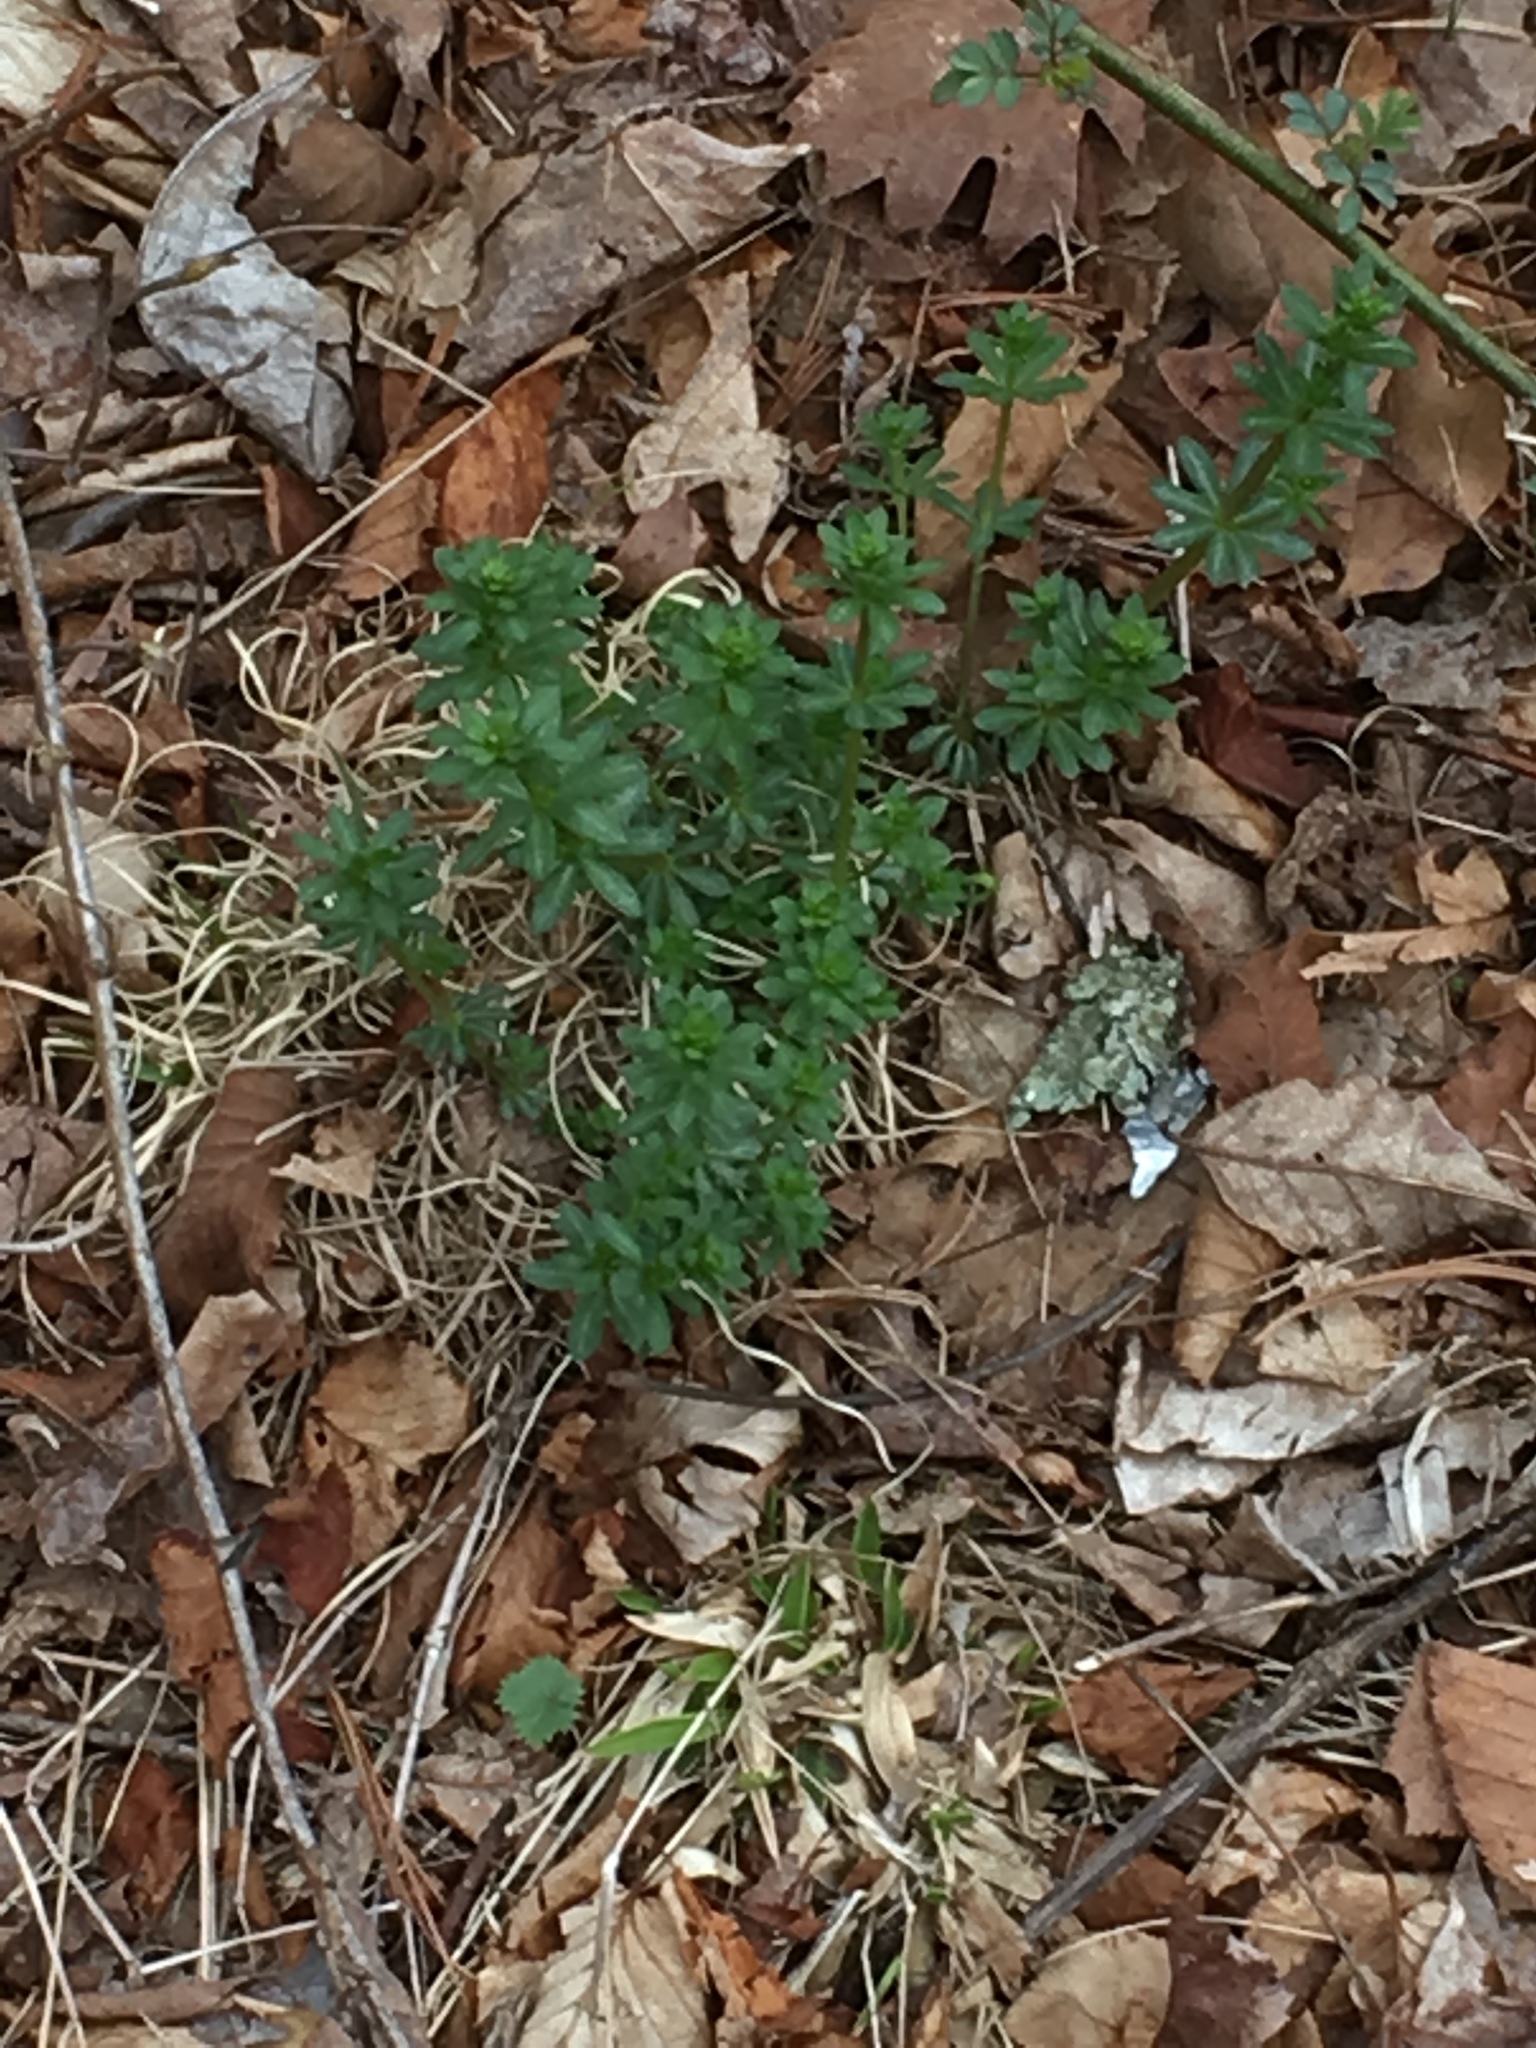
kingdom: Plantae
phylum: Tracheophyta
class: Magnoliopsida
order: Gentianales
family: Rubiaceae
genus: Galium
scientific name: Galium mollugo
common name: Hedge bedstraw
